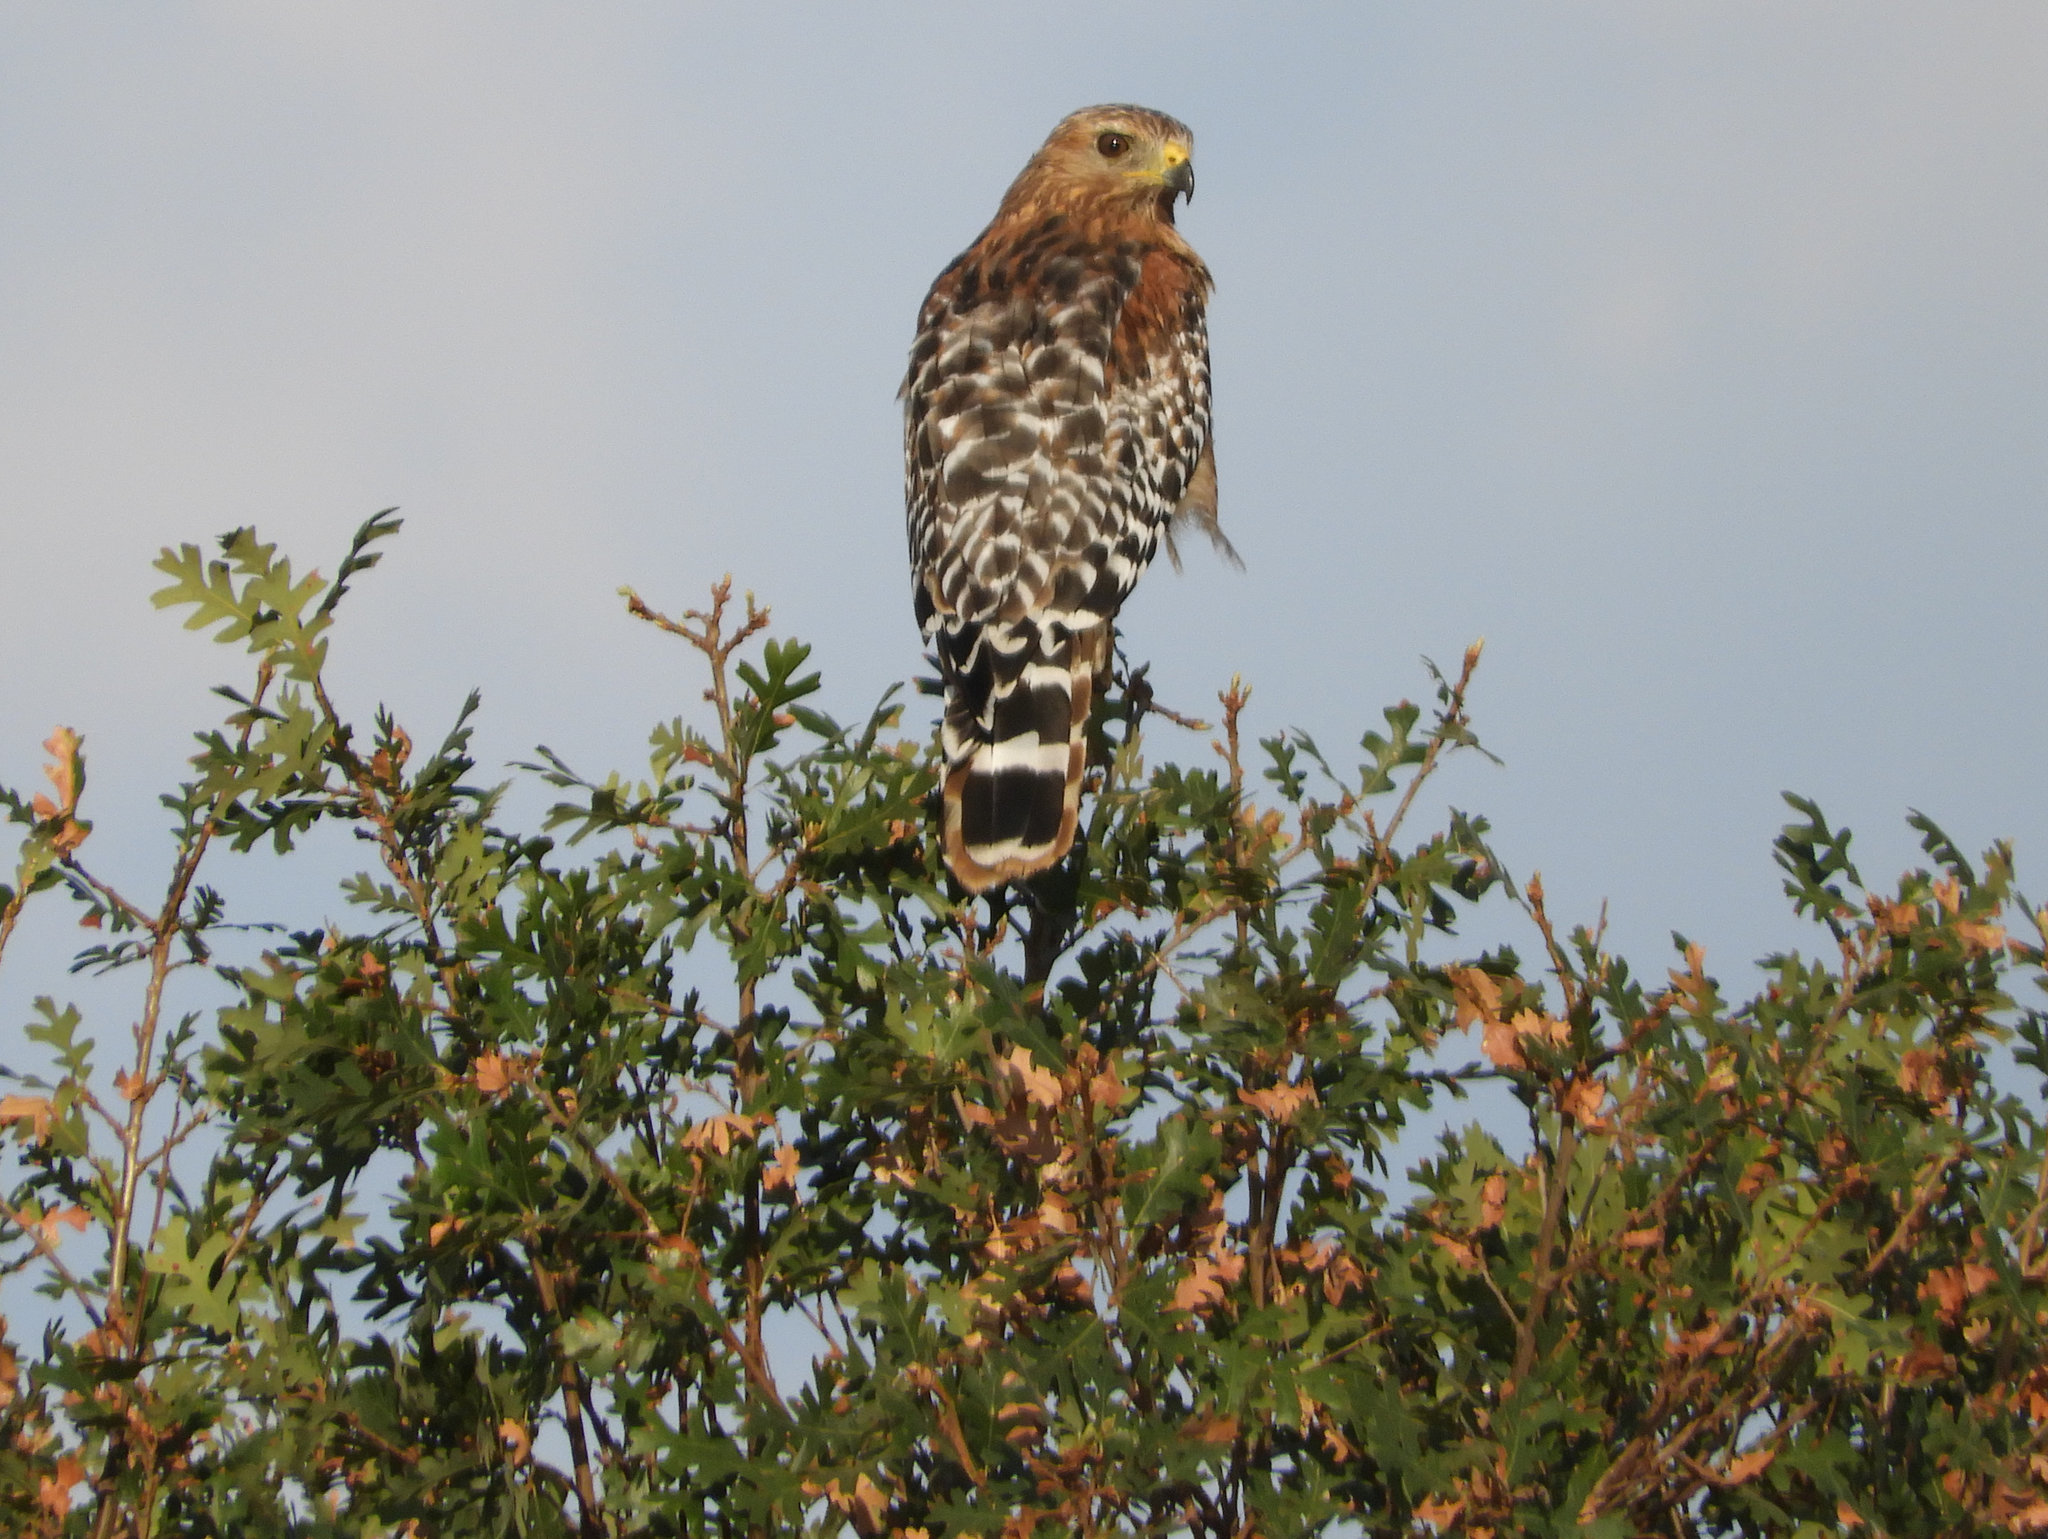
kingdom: Animalia
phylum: Chordata
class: Aves
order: Accipitriformes
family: Accipitridae
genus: Buteo
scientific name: Buteo lineatus
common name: Red-shouldered hawk
